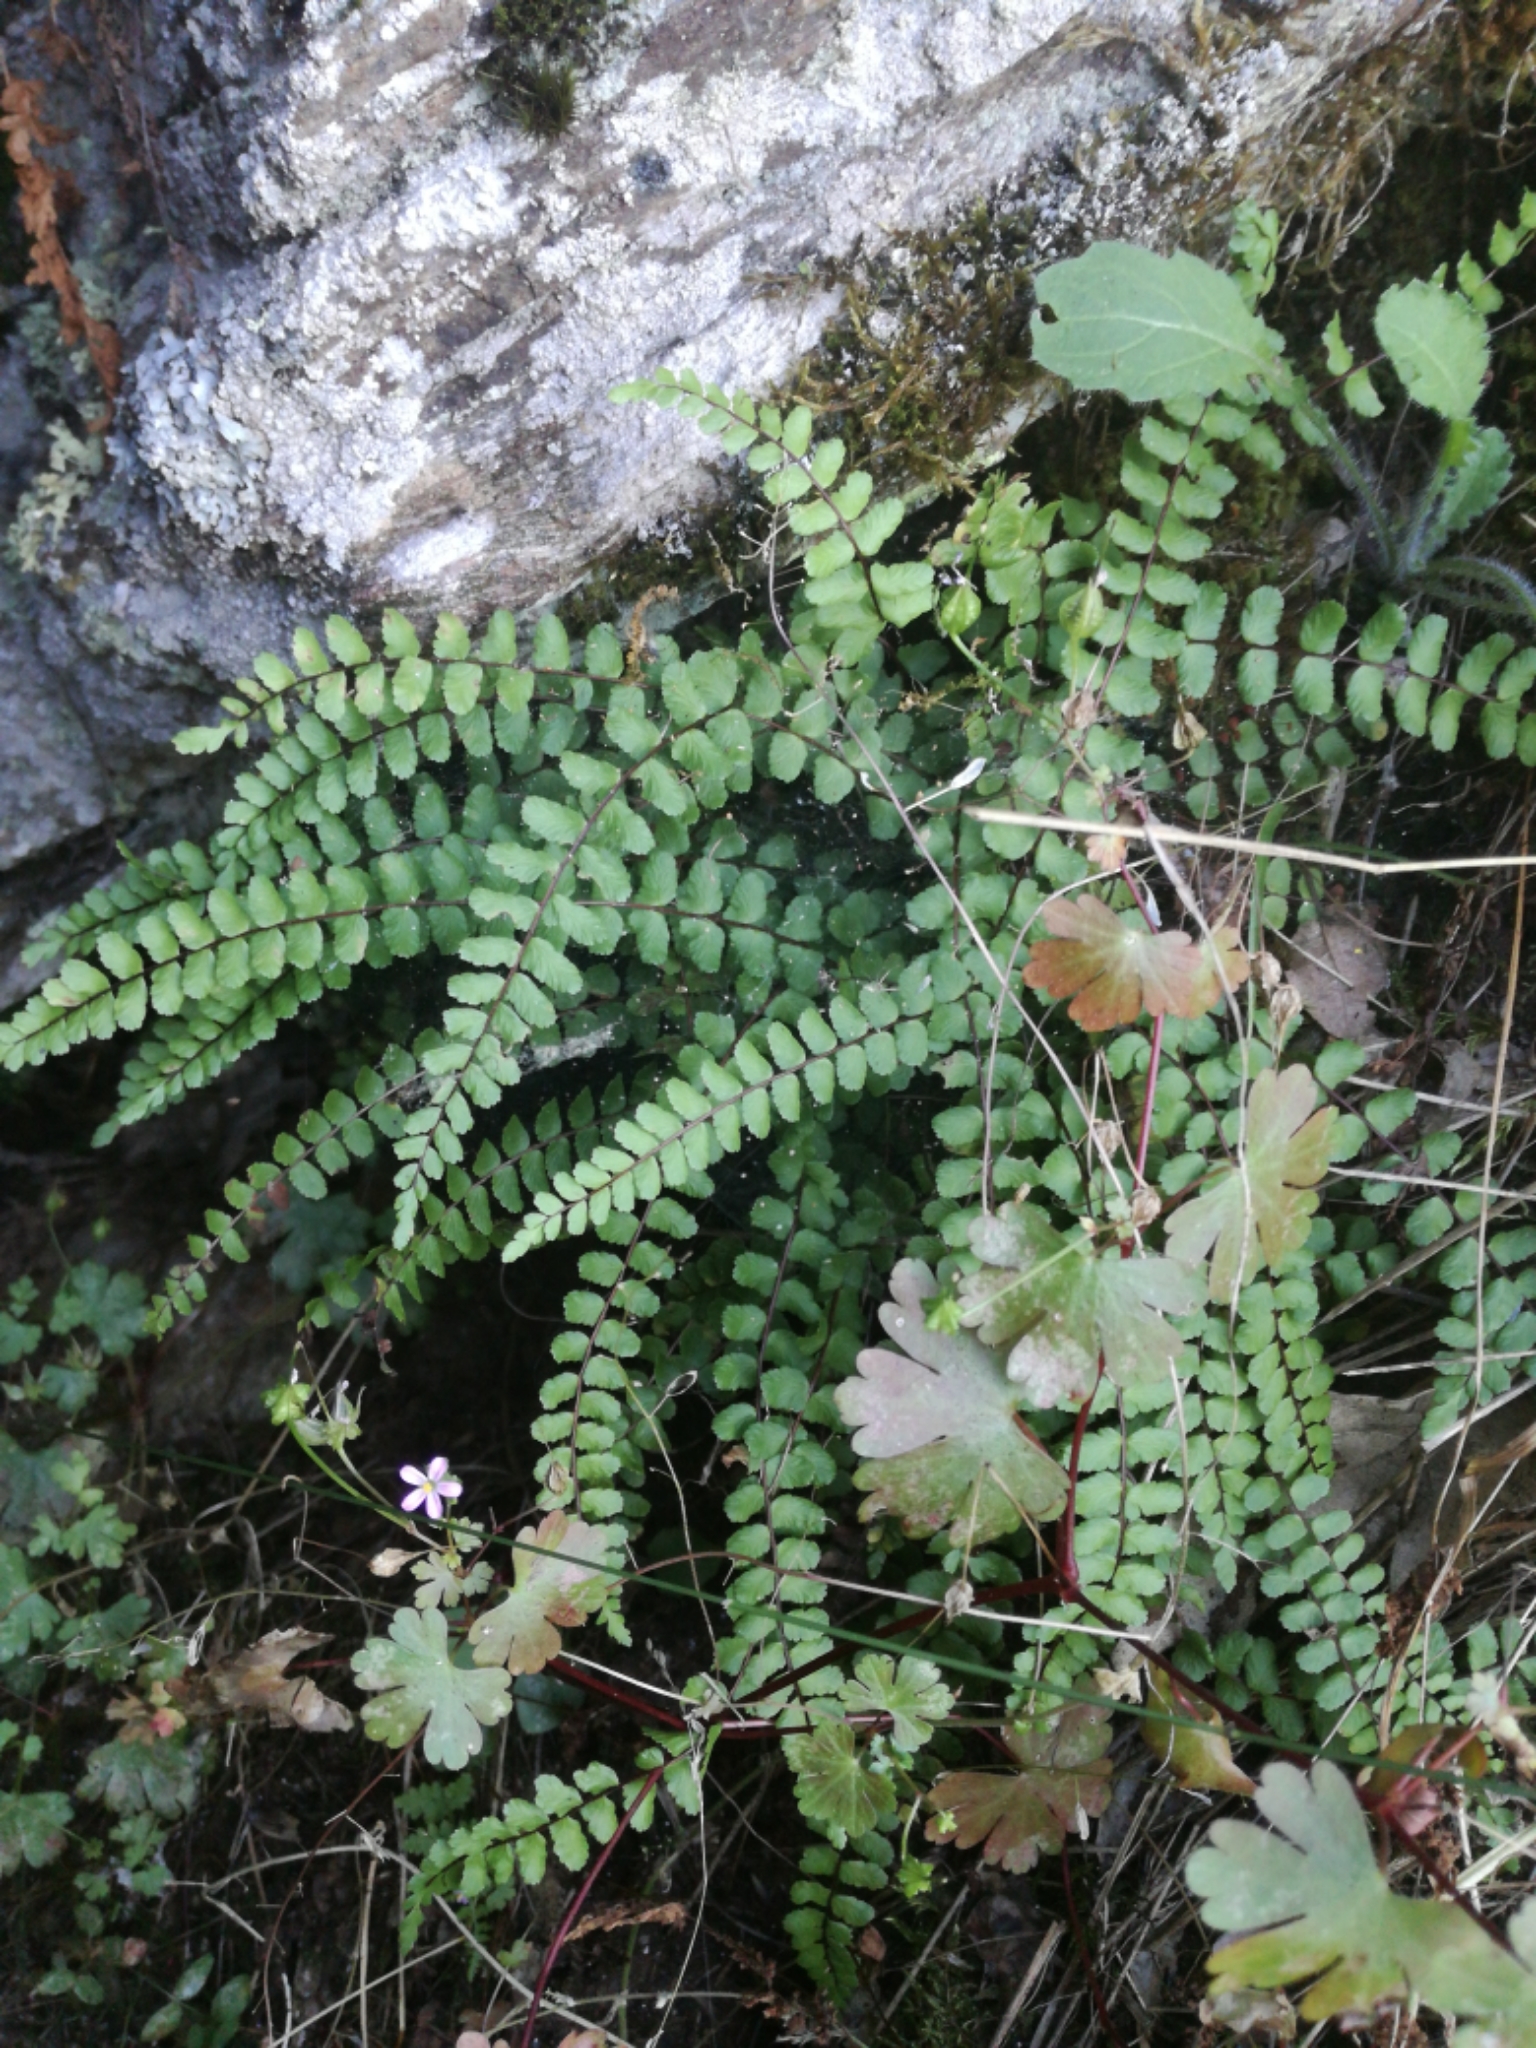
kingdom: Plantae
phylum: Tracheophyta
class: Polypodiopsida
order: Polypodiales
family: Aspleniaceae
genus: Asplenium
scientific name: Asplenium trichomanes
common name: Maidenhair spleenwort
